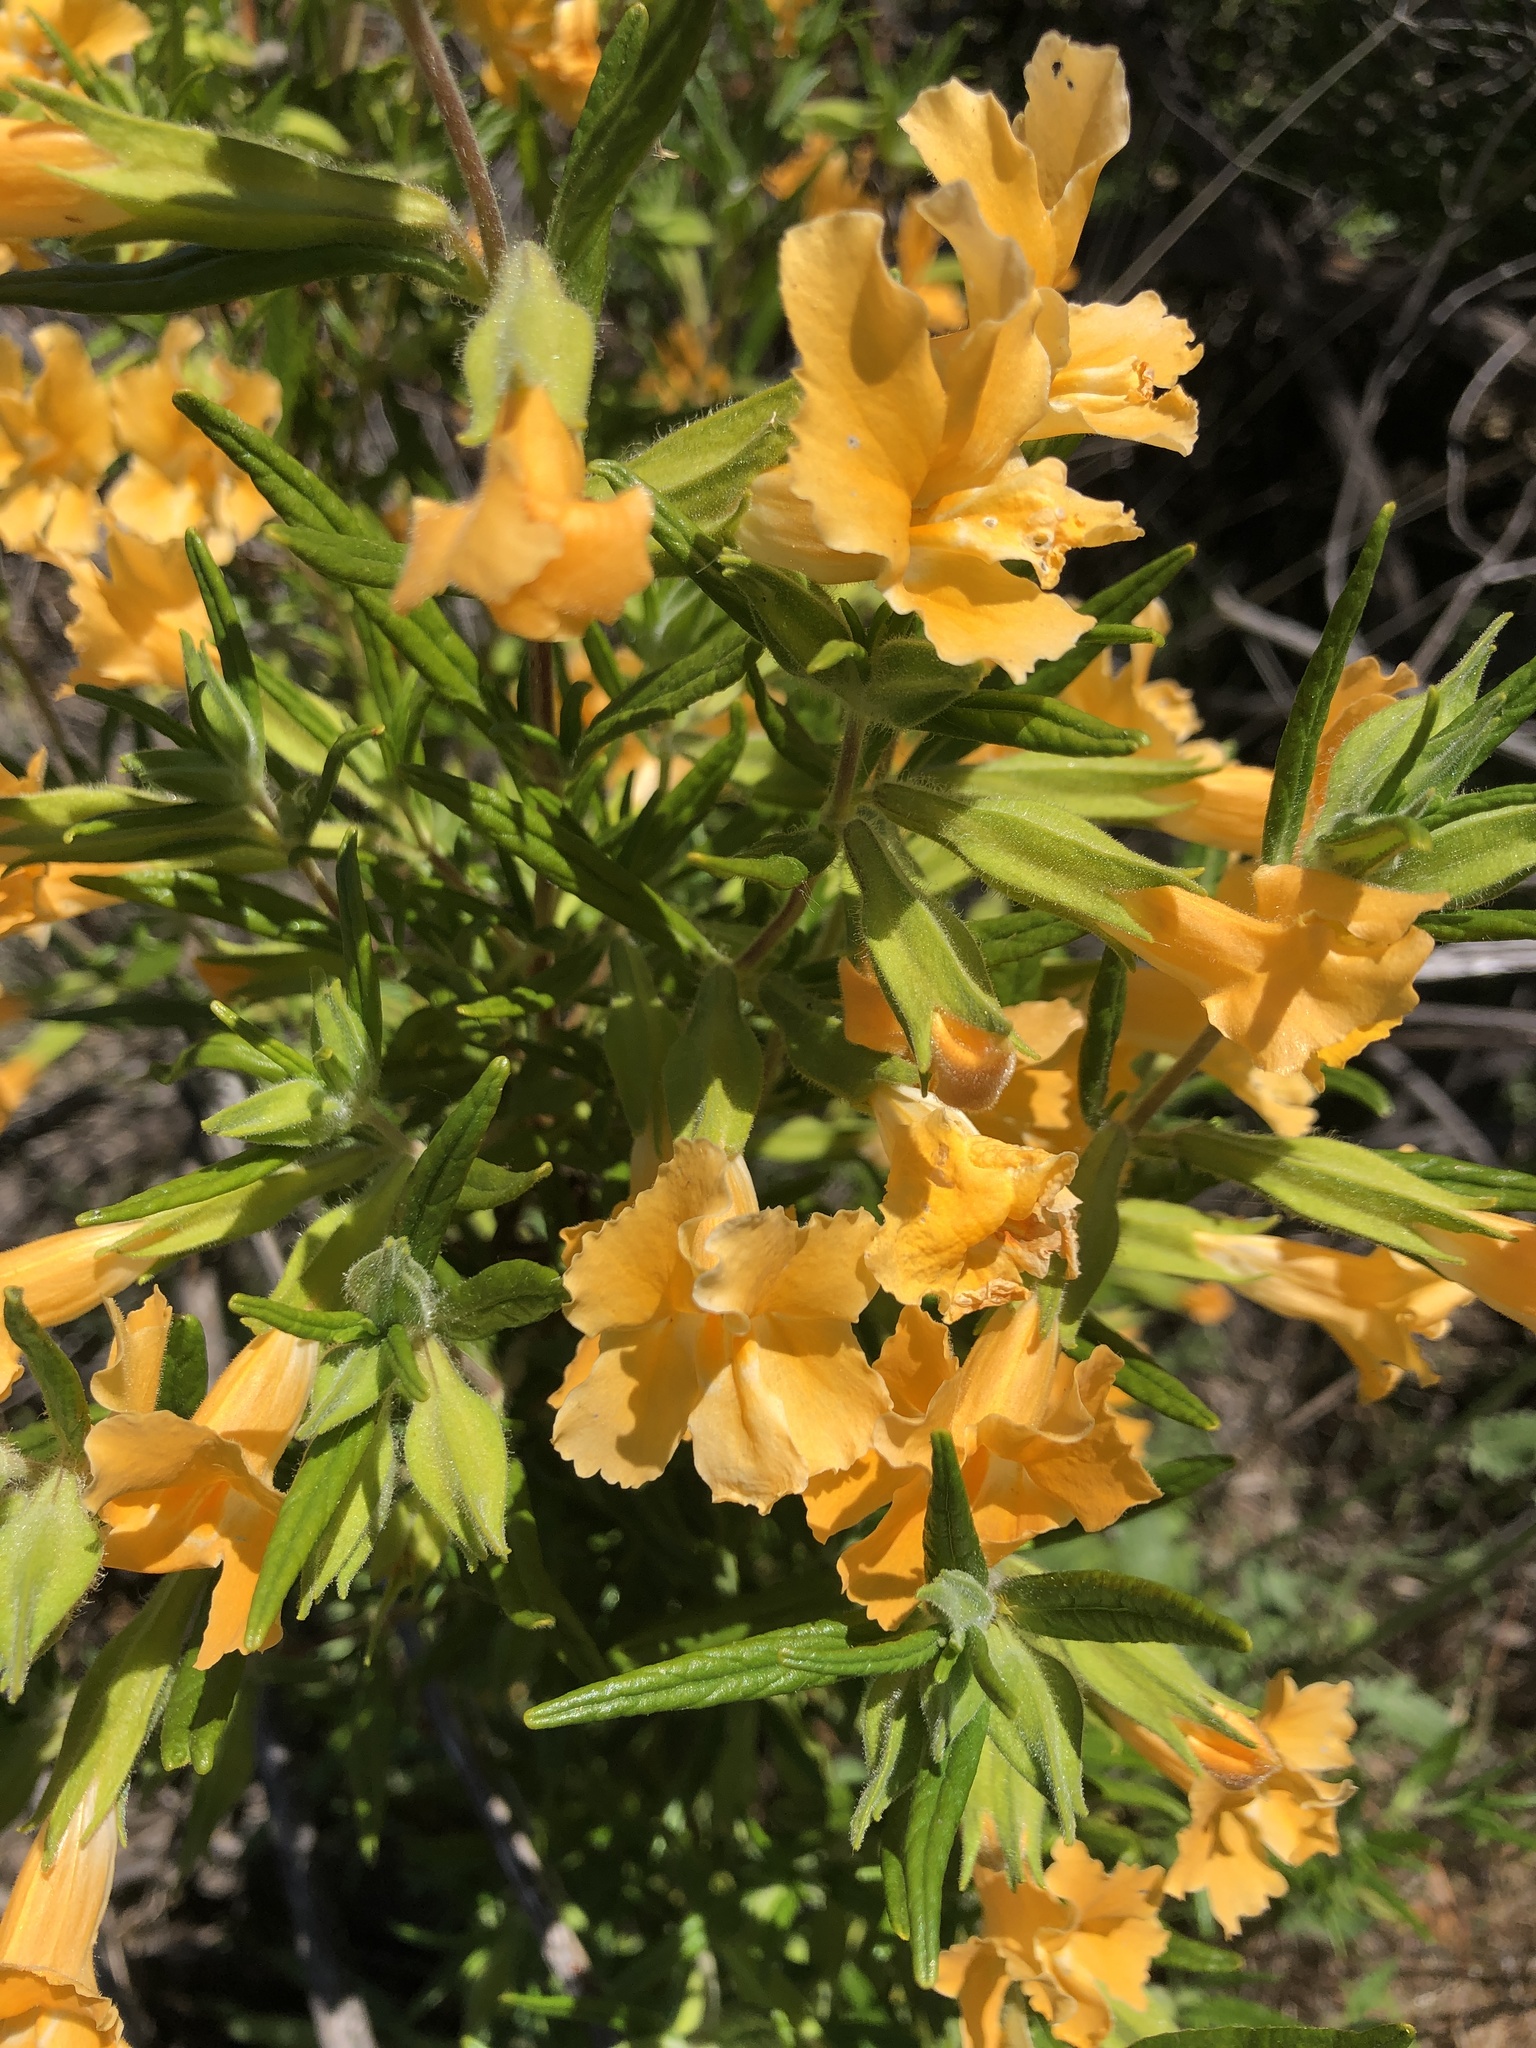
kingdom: Plantae
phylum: Tracheophyta
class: Magnoliopsida
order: Lamiales
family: Phrymaceae
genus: Diplacus
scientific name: Diplacus longiflorus
